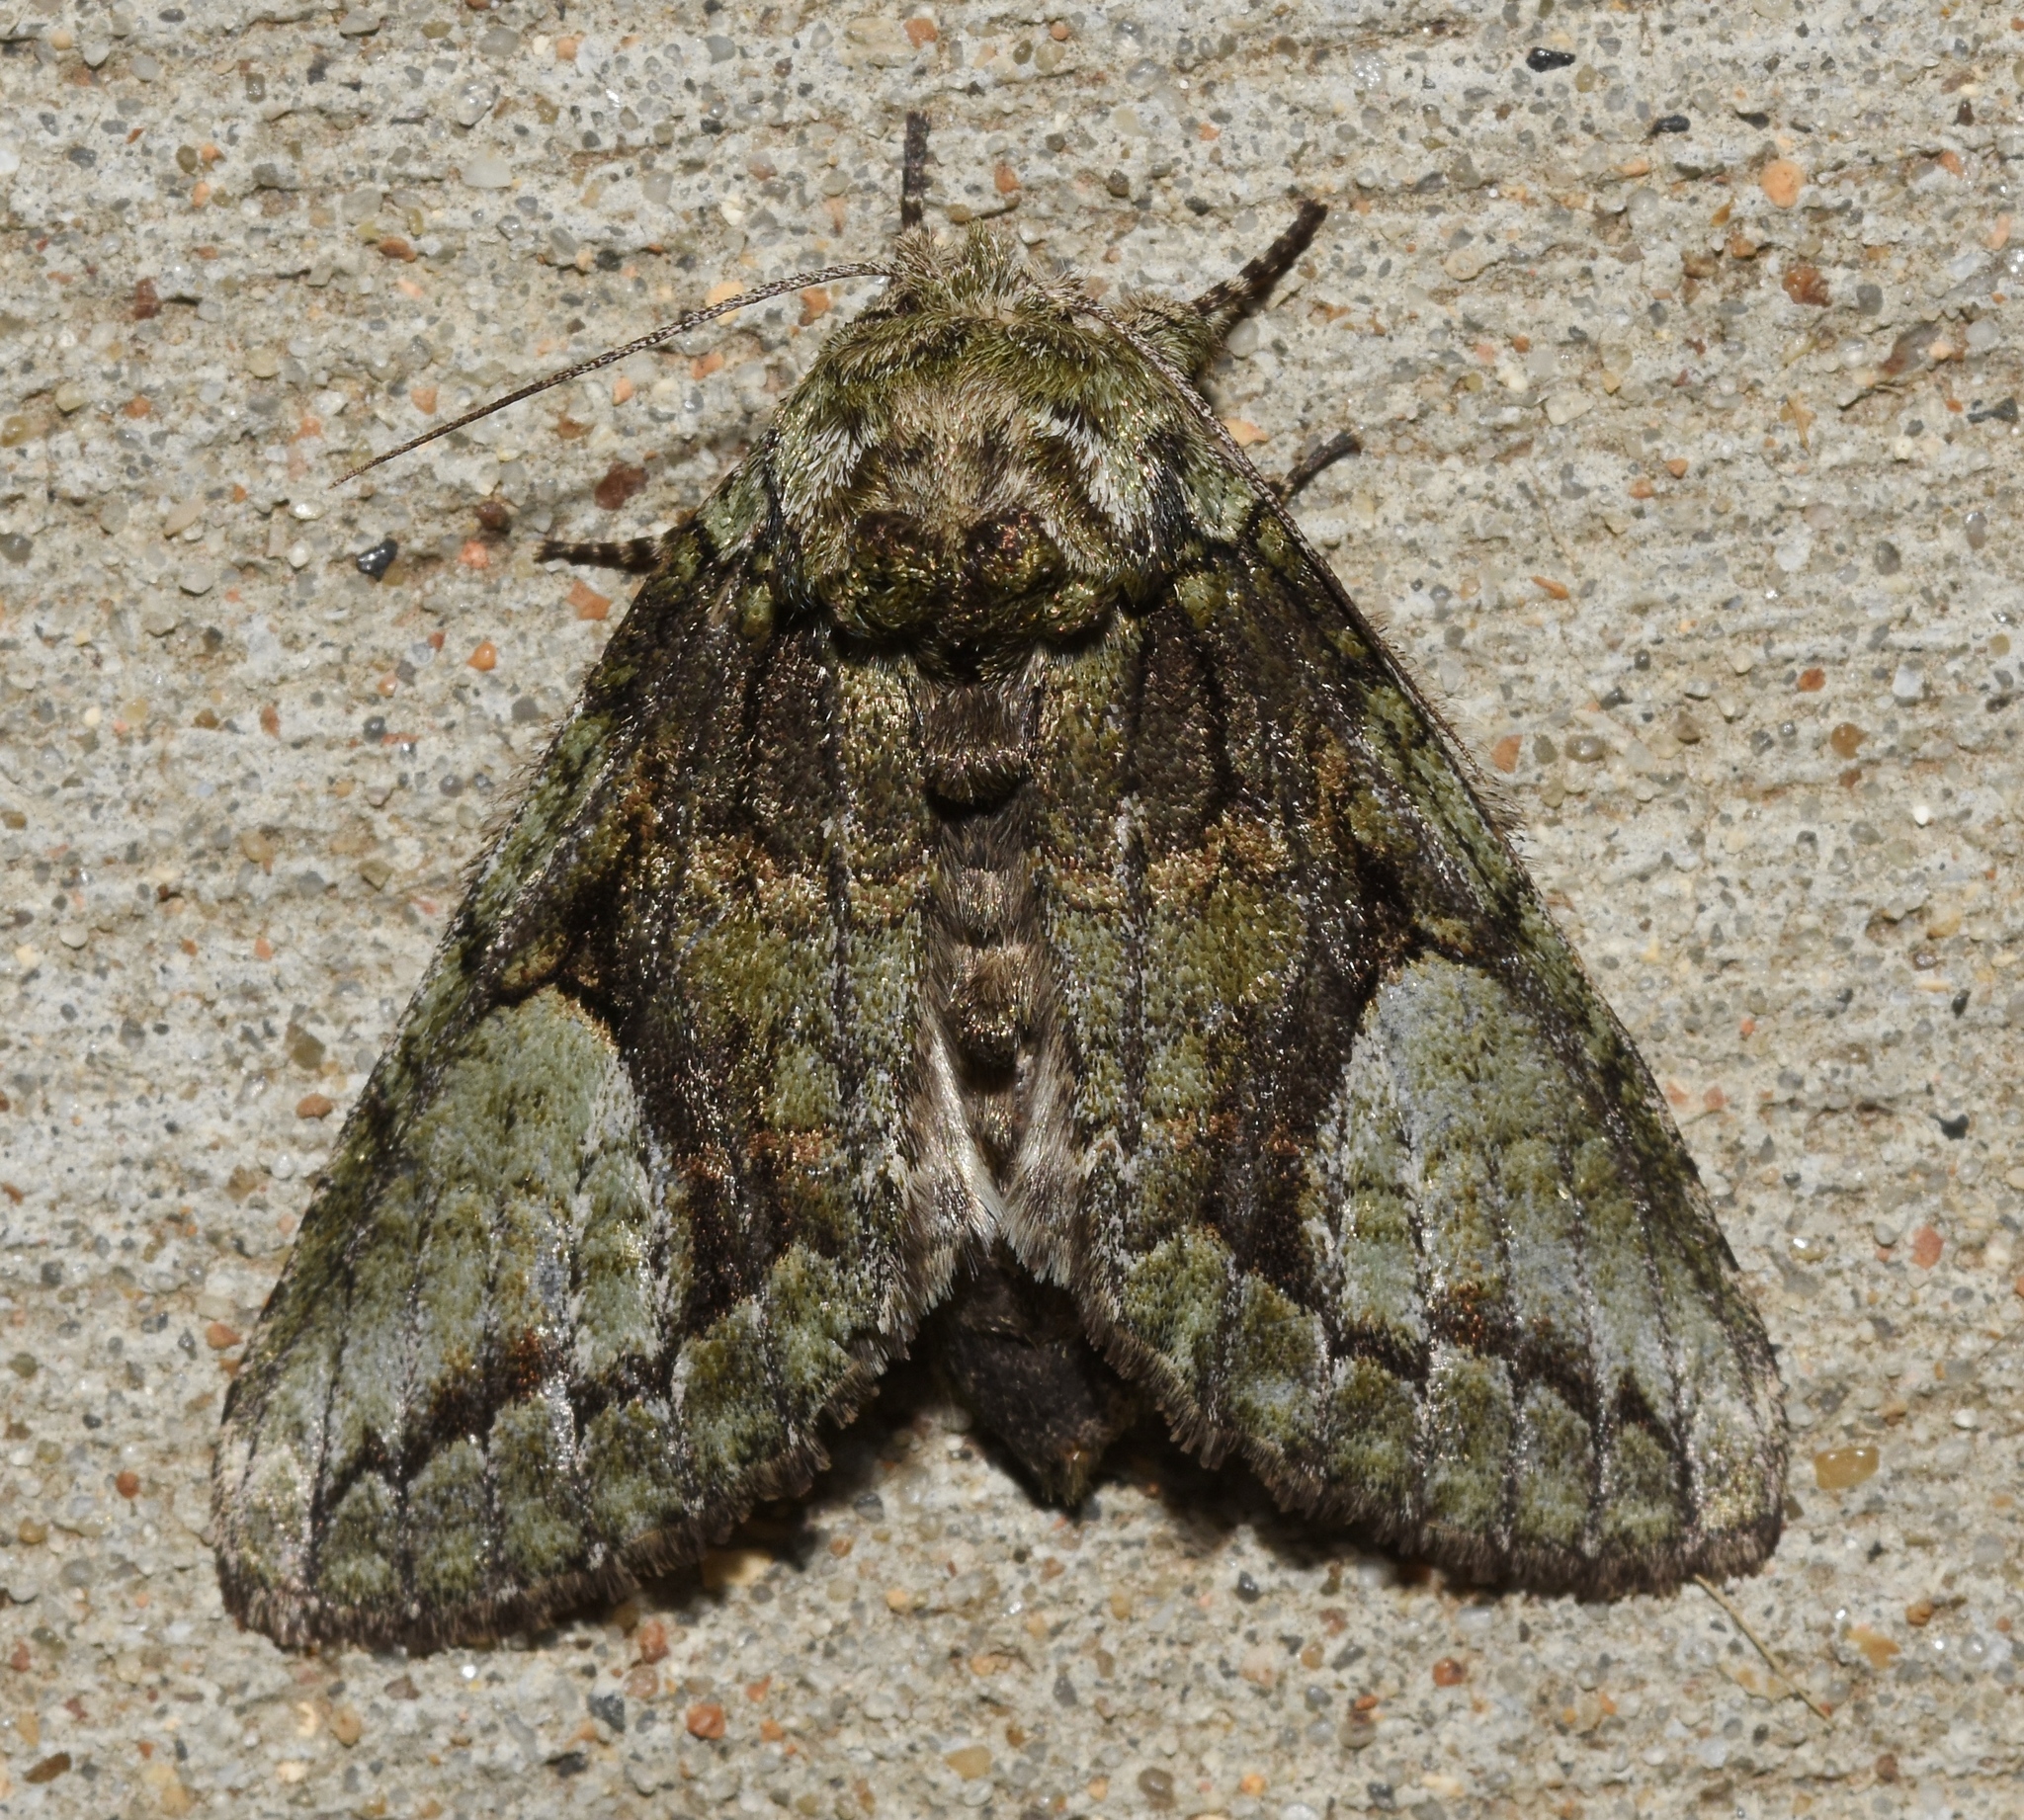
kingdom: Animalia
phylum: Arthropoda
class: Insecta
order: Lepidoptera
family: Notodontidae
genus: Heterocampa
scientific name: Heterocampa
